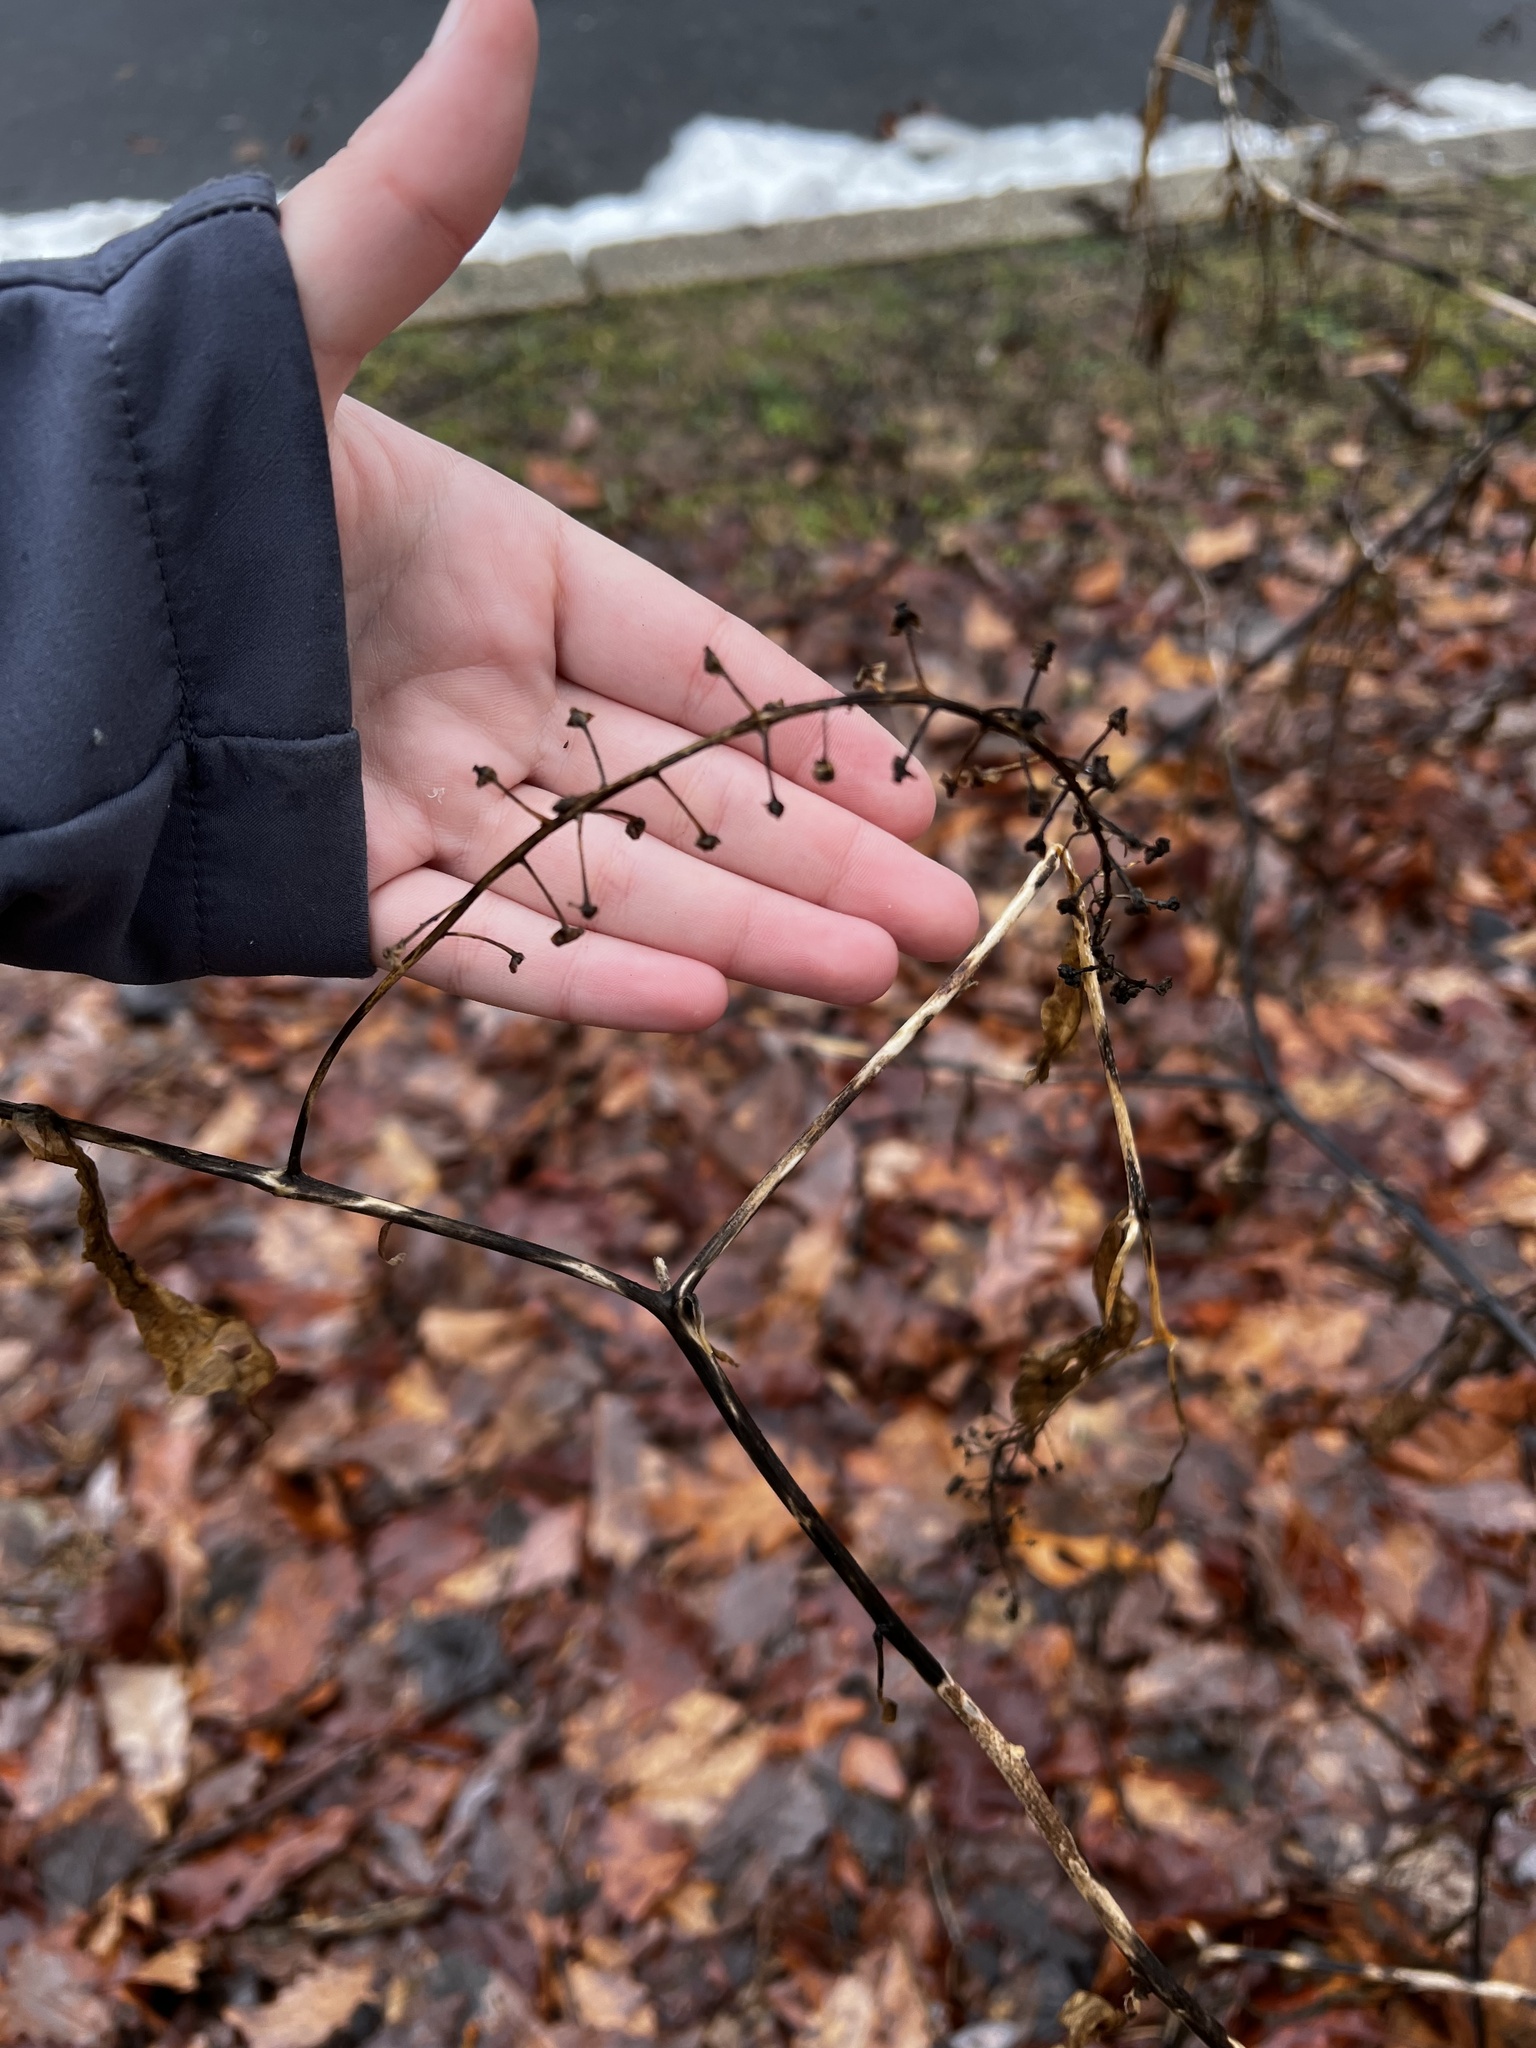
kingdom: Plantae
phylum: Tracheophyta
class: Magnoliopsida
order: Caryophyllales
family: Phytolaccaceae
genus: Phytolacca
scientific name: Phytolacca americana
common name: American pokeweed
